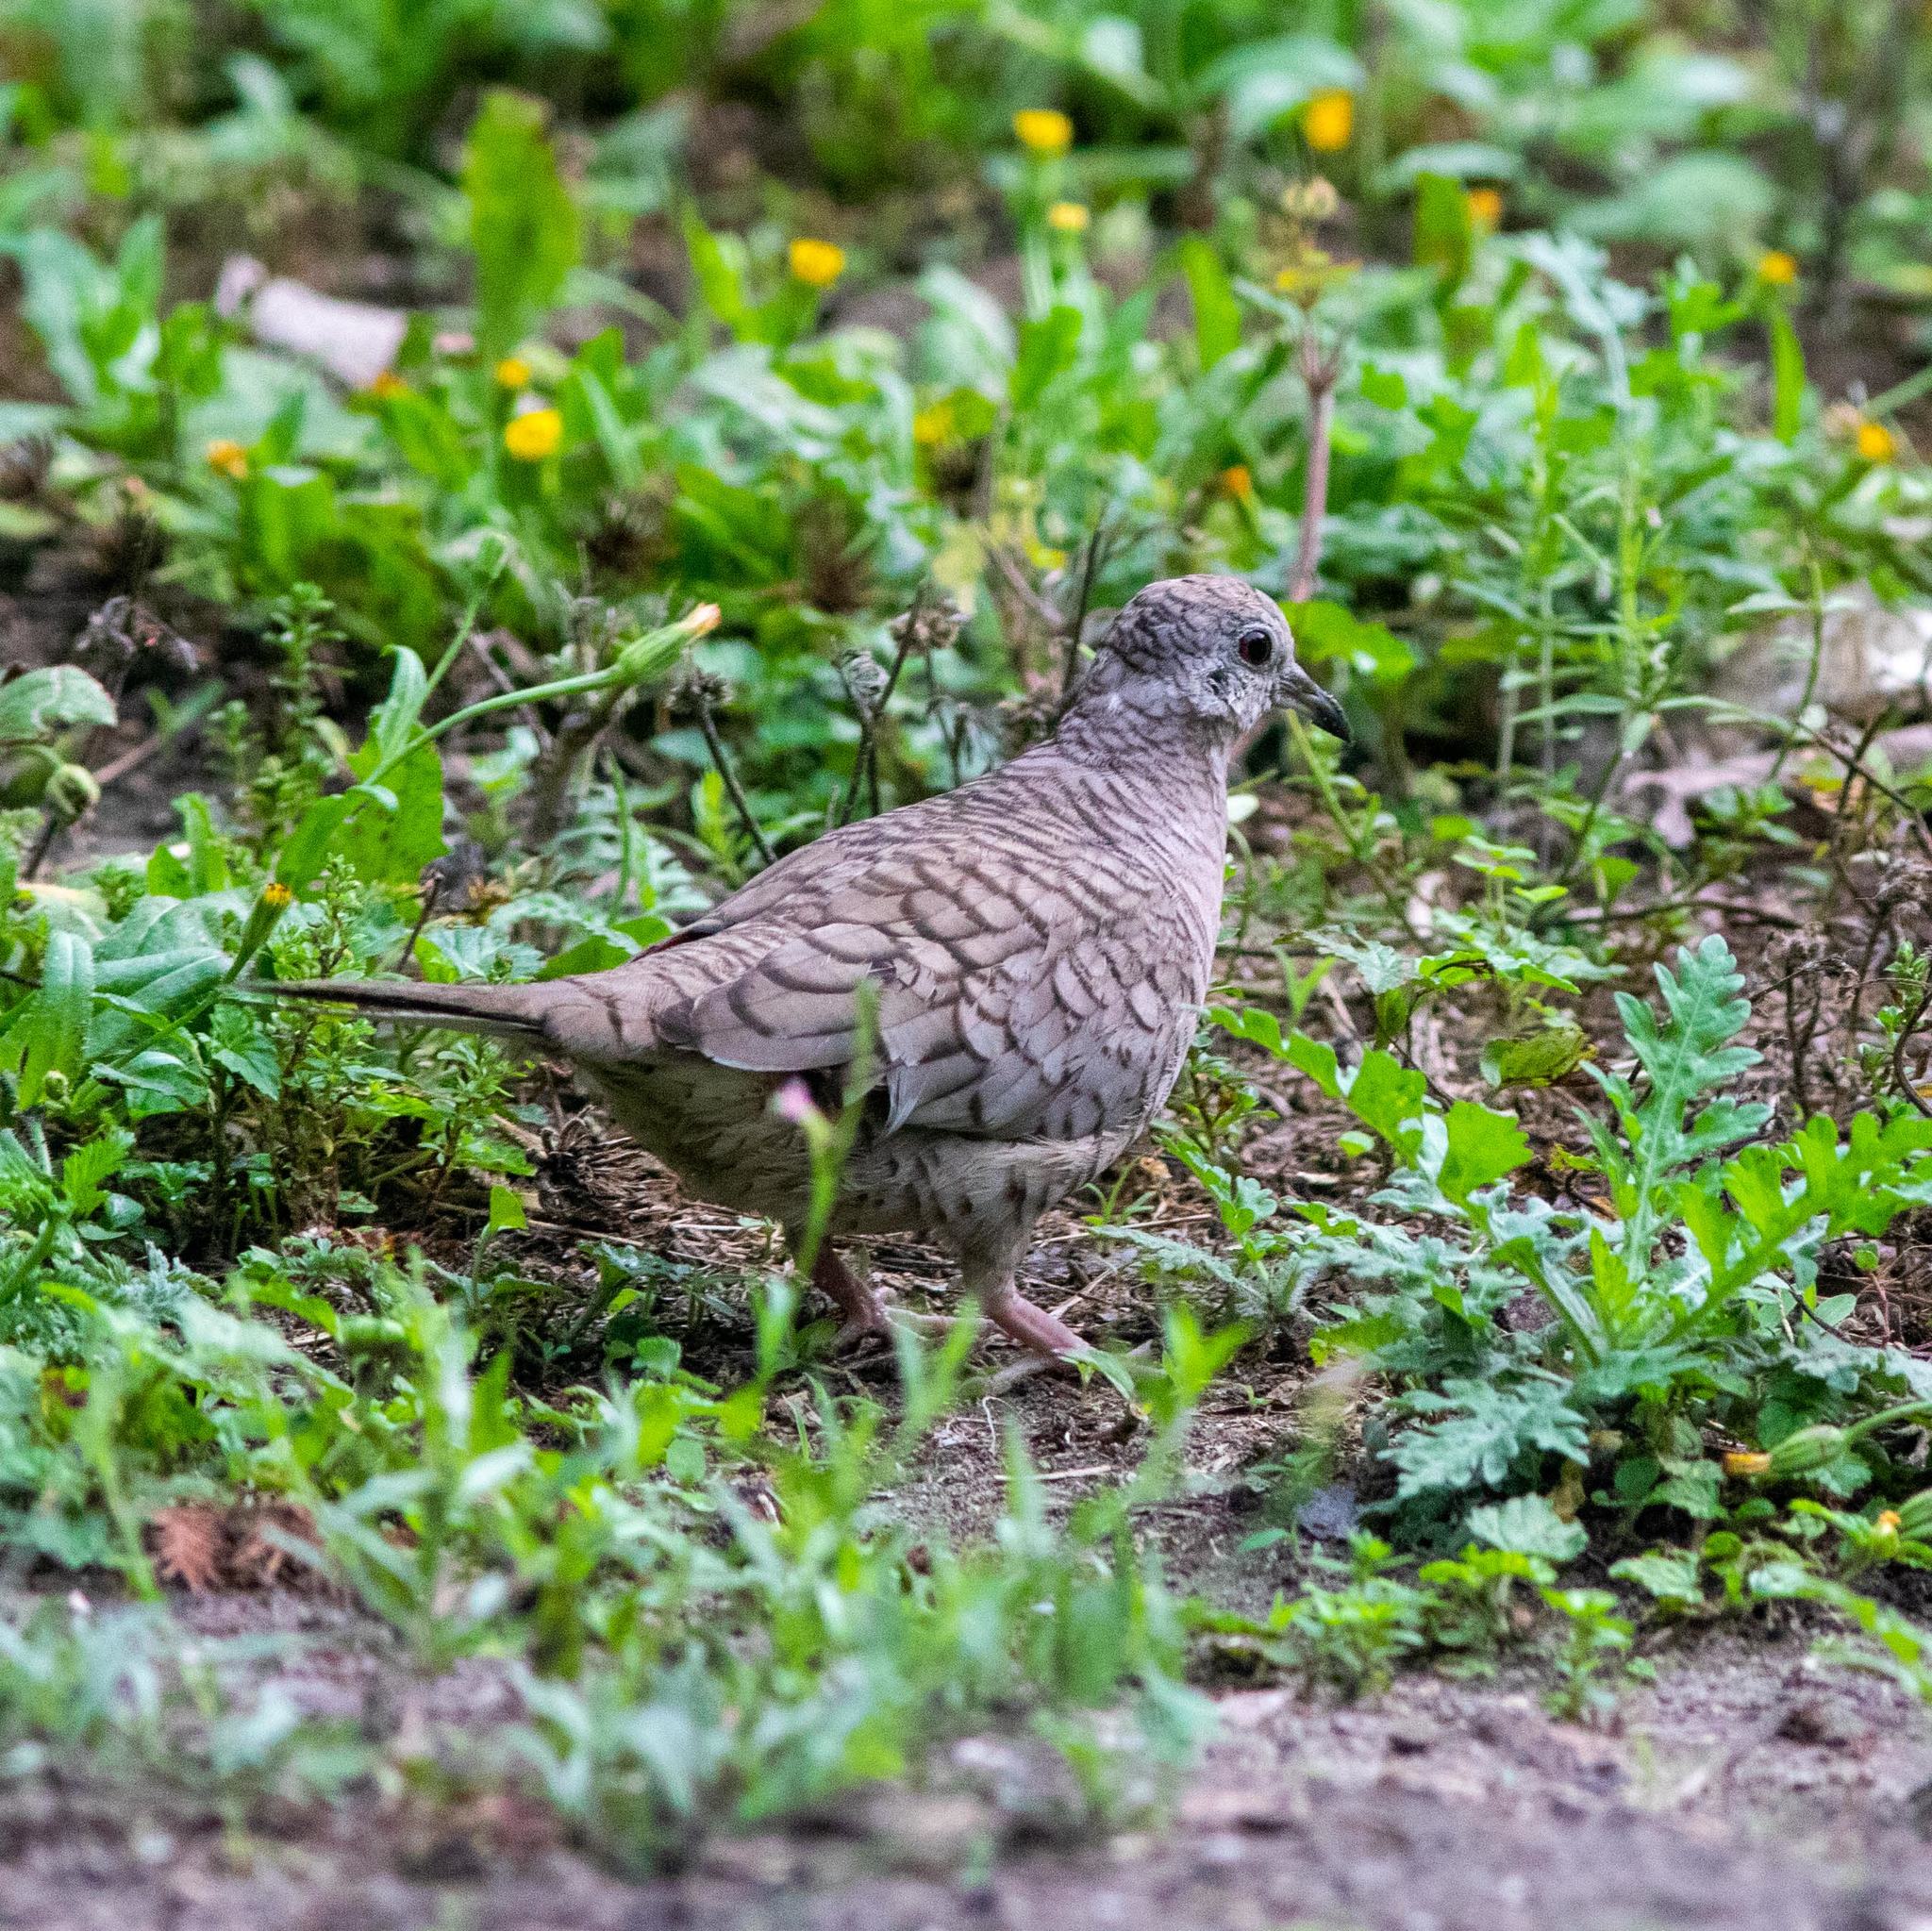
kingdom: Animalia
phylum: Chordata
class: Aves
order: Columbiformes
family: Columbidae
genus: Columbina
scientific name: Columbina inca
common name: Inca dove
